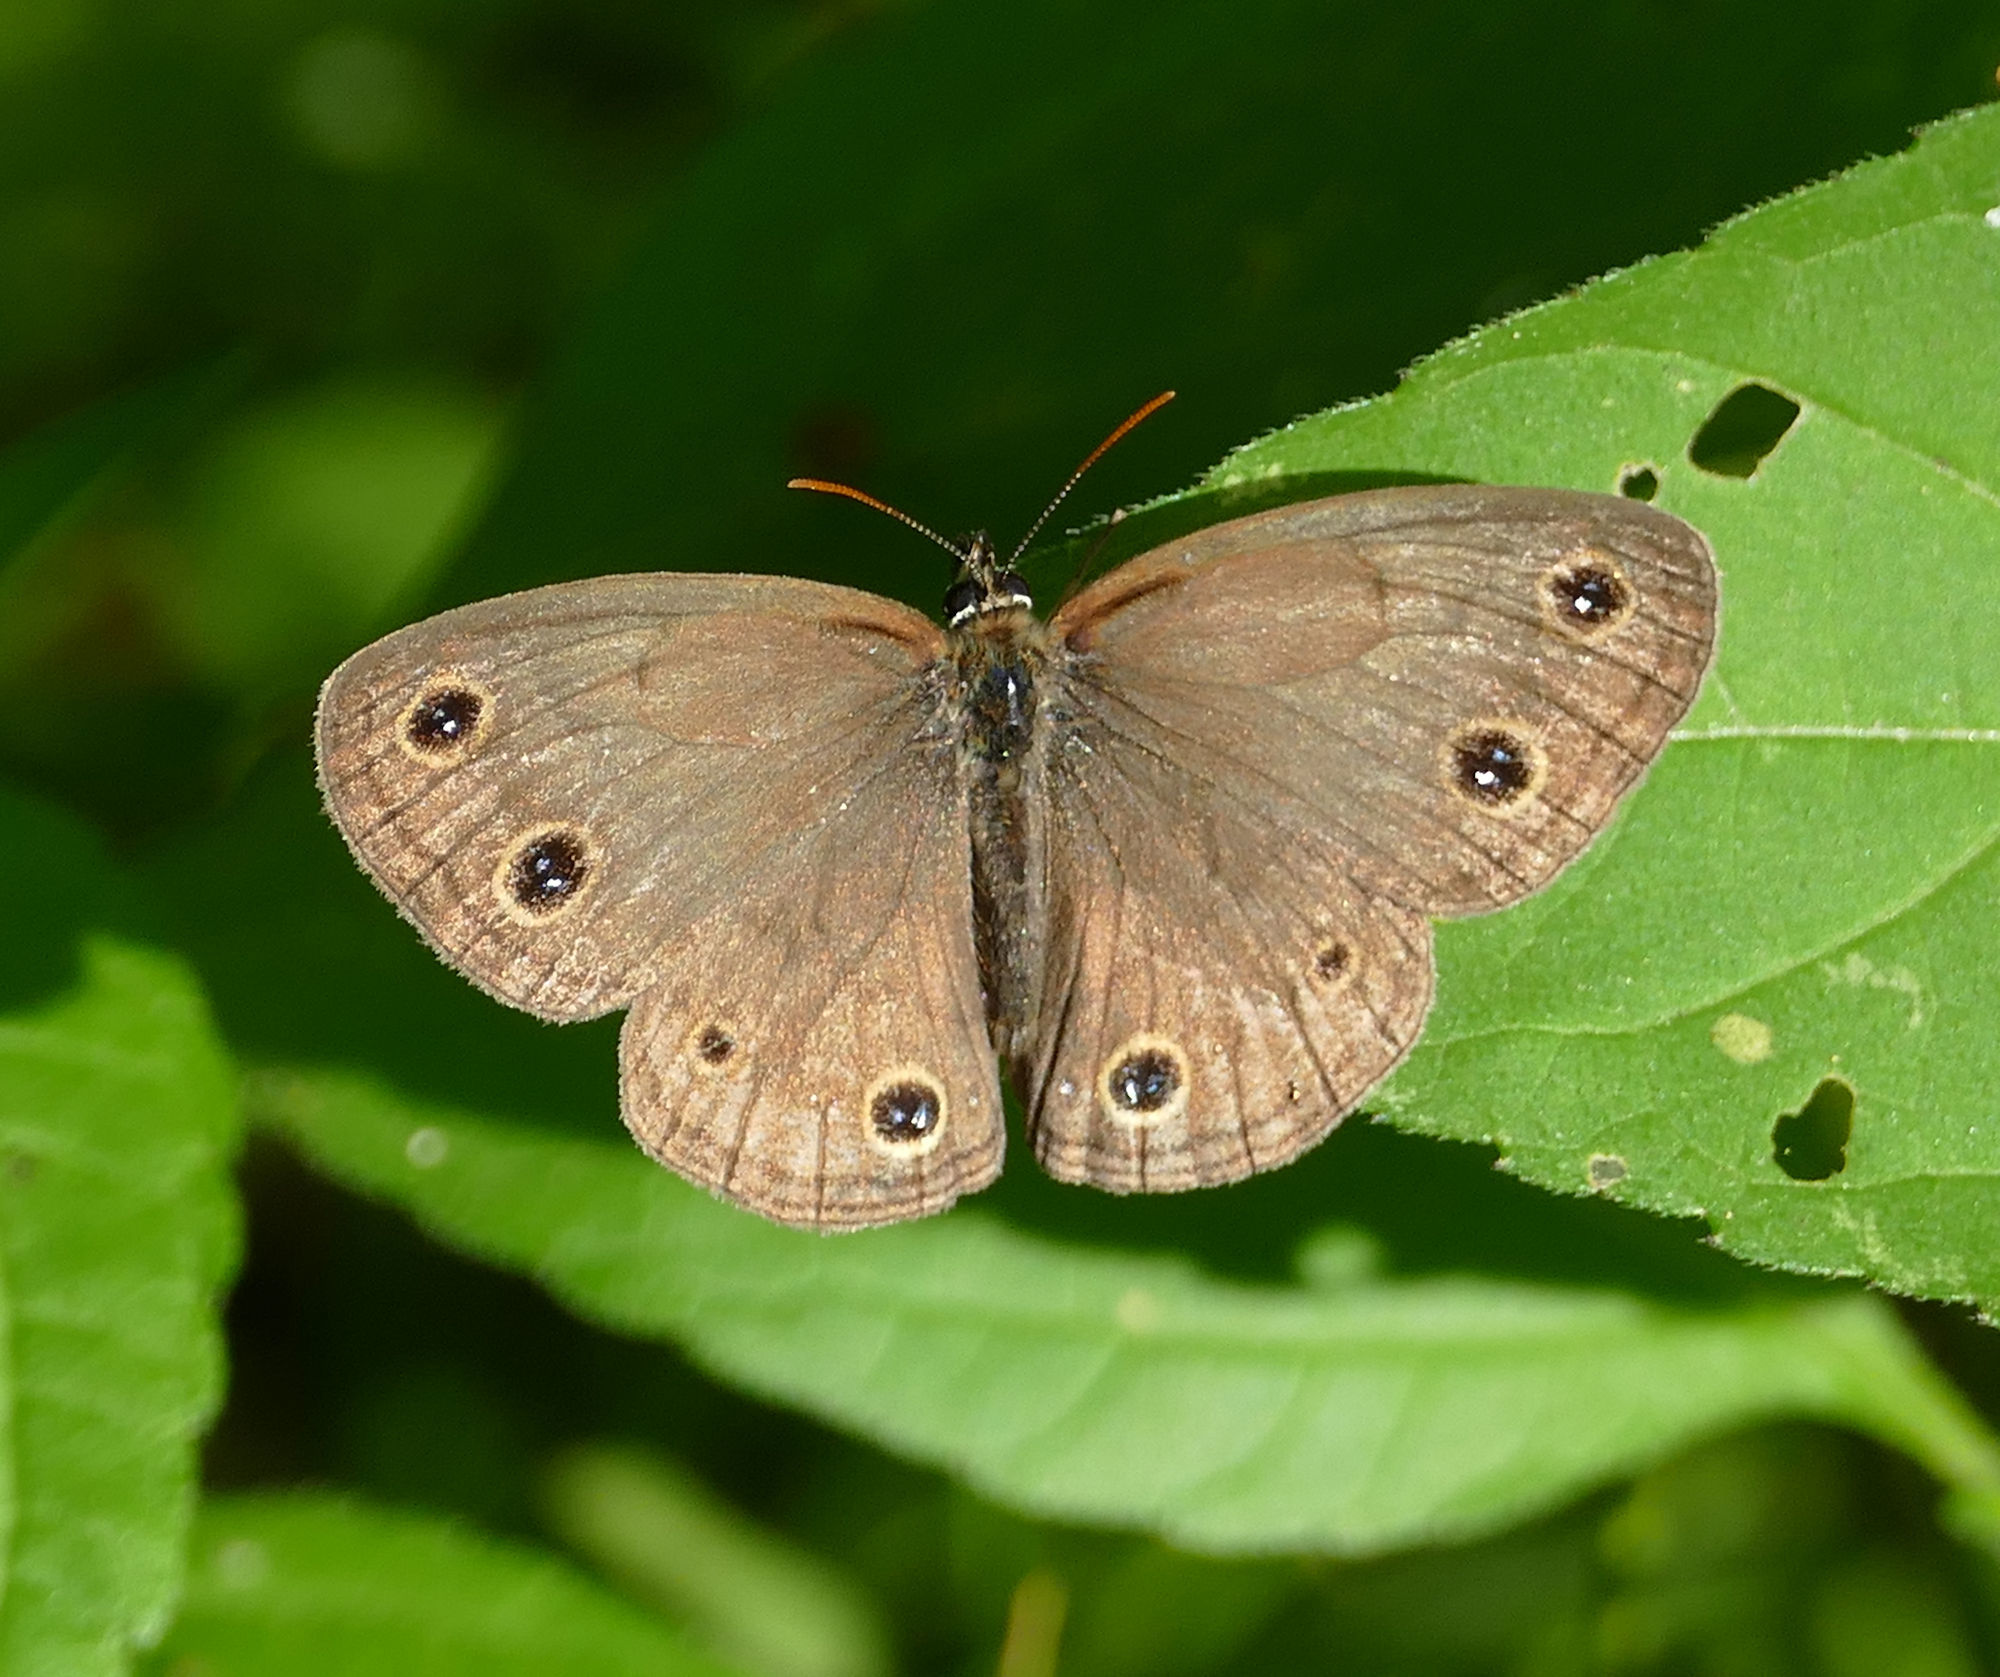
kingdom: Animalia
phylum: Arthropoda
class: Insecta
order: Lepidoptera
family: Nymphalidae
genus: Euptychia
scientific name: Euptychia cymela
